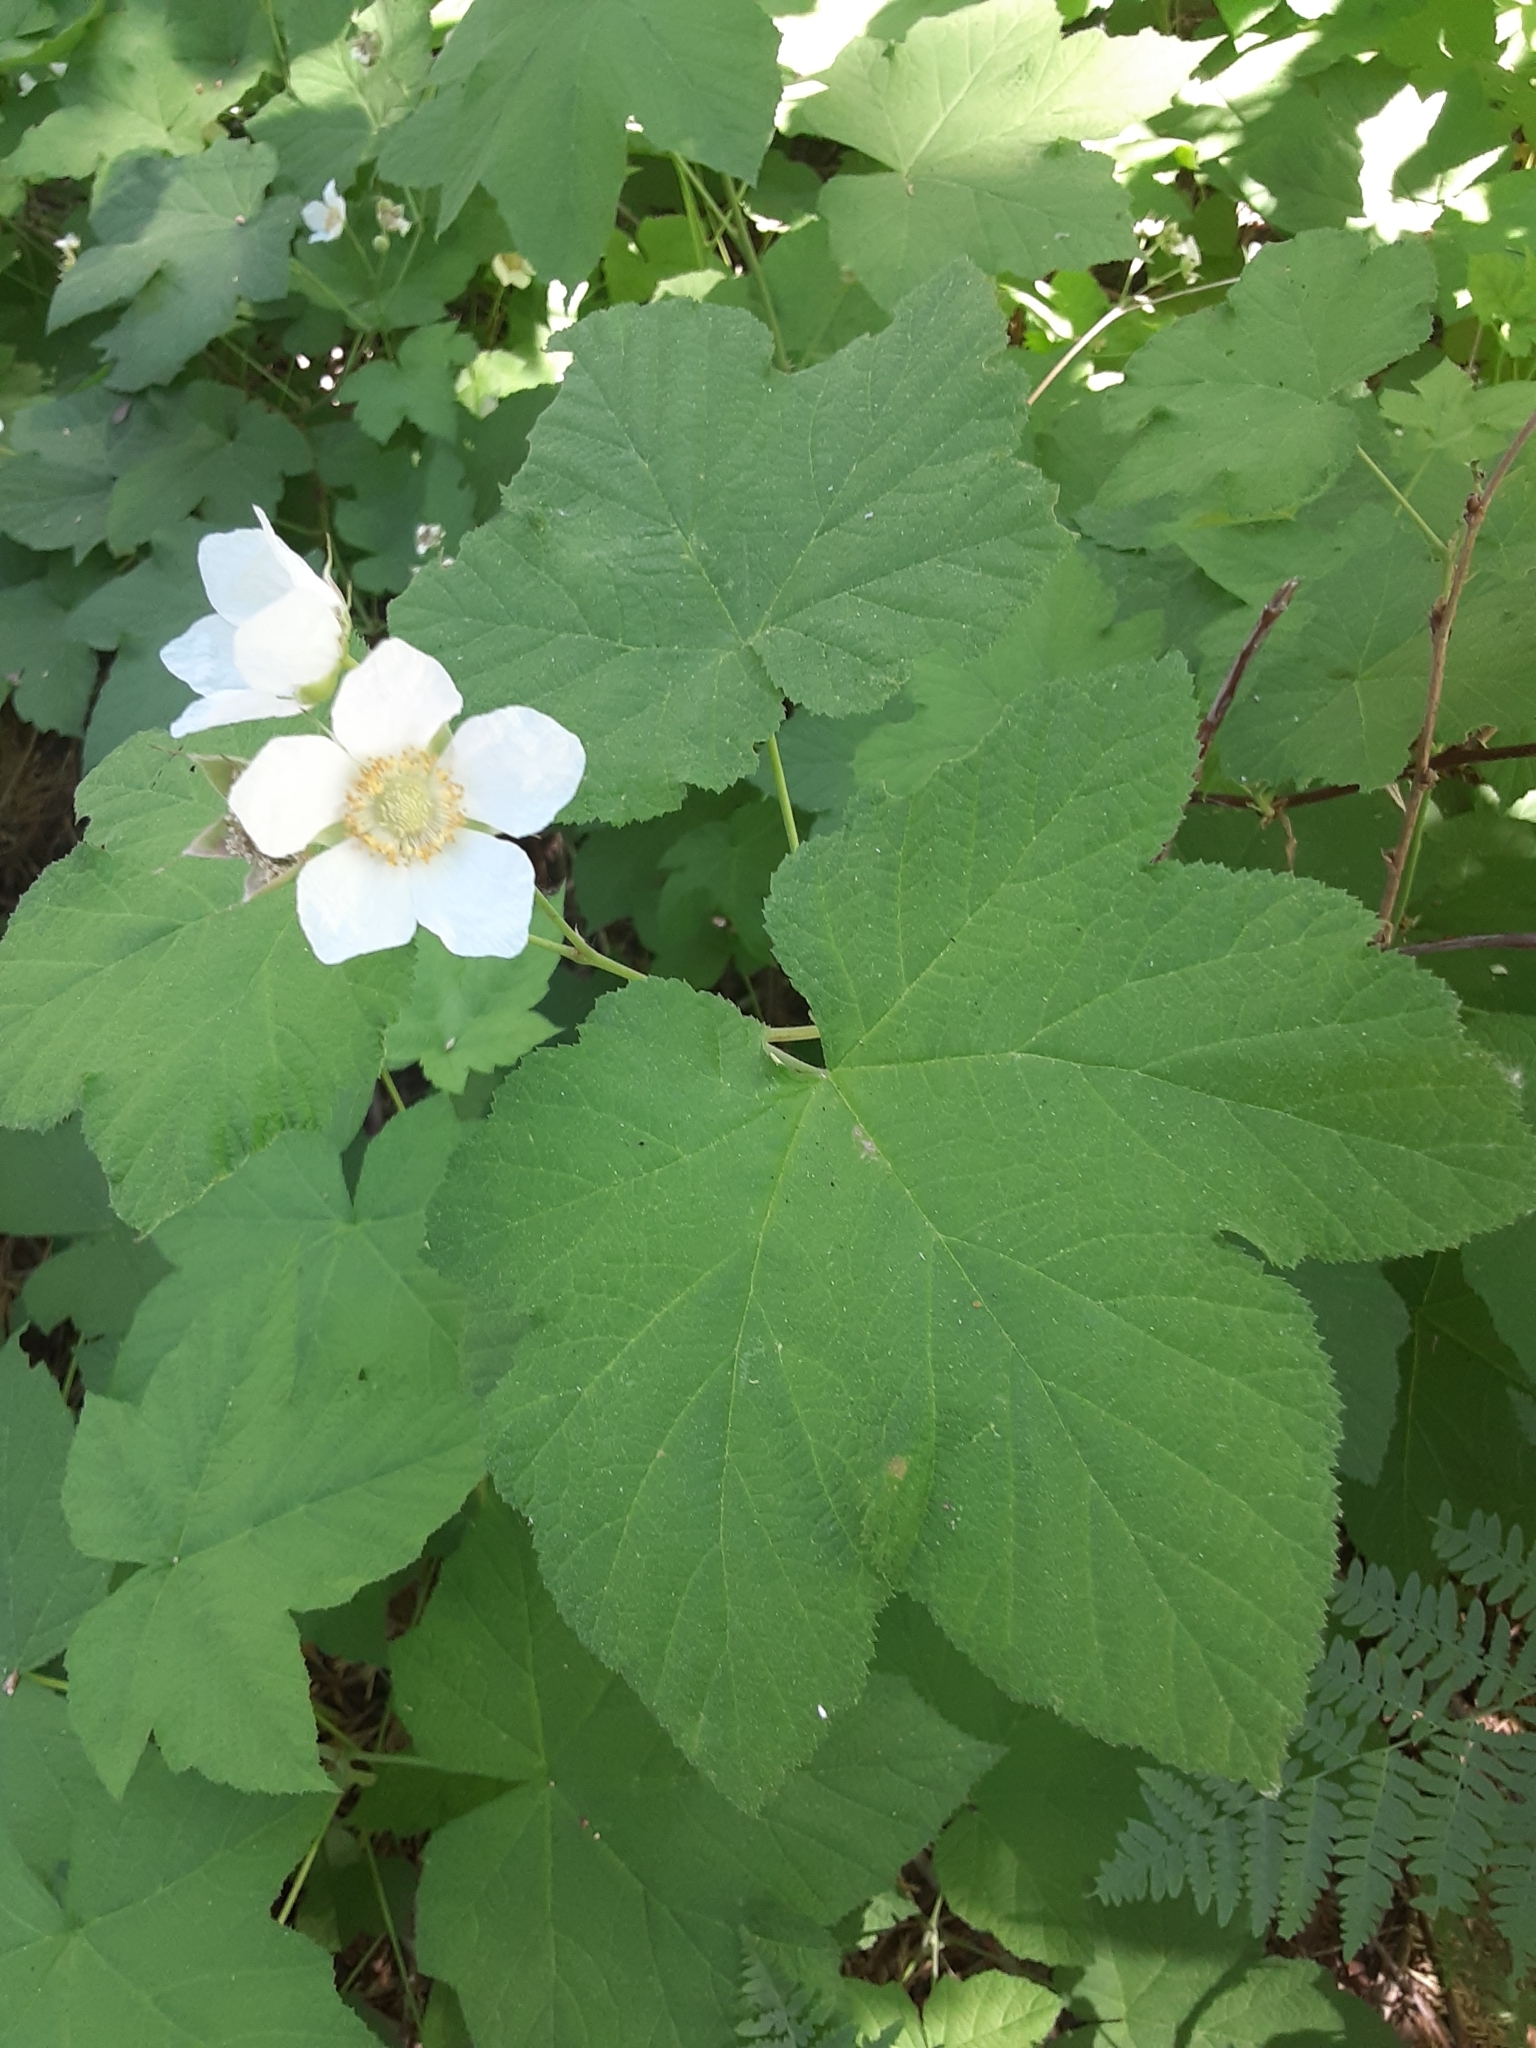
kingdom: Plantae
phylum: Tracheophyta
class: Magnoliopsida
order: Rosales
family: Rosaceae
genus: Rubus
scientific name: Rubus parviflorus
